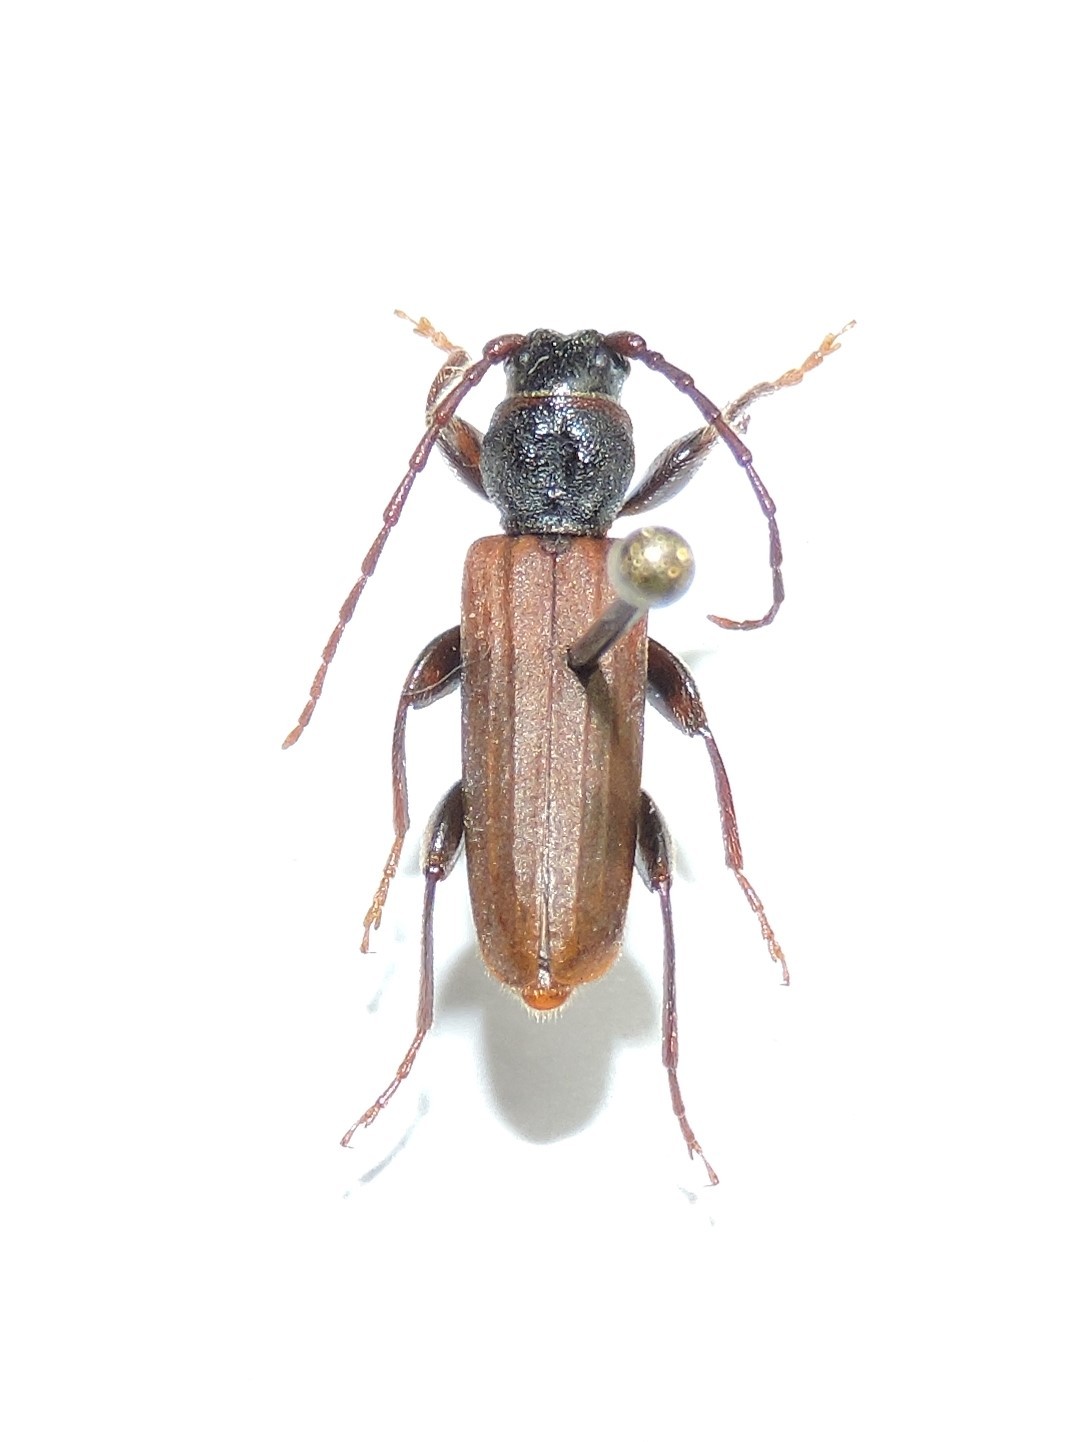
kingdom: Animalia
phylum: Arthropoda
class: Insecta
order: Coleoptera
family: Cerambycidae
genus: Tetropium
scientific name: Tetropium fuscum
